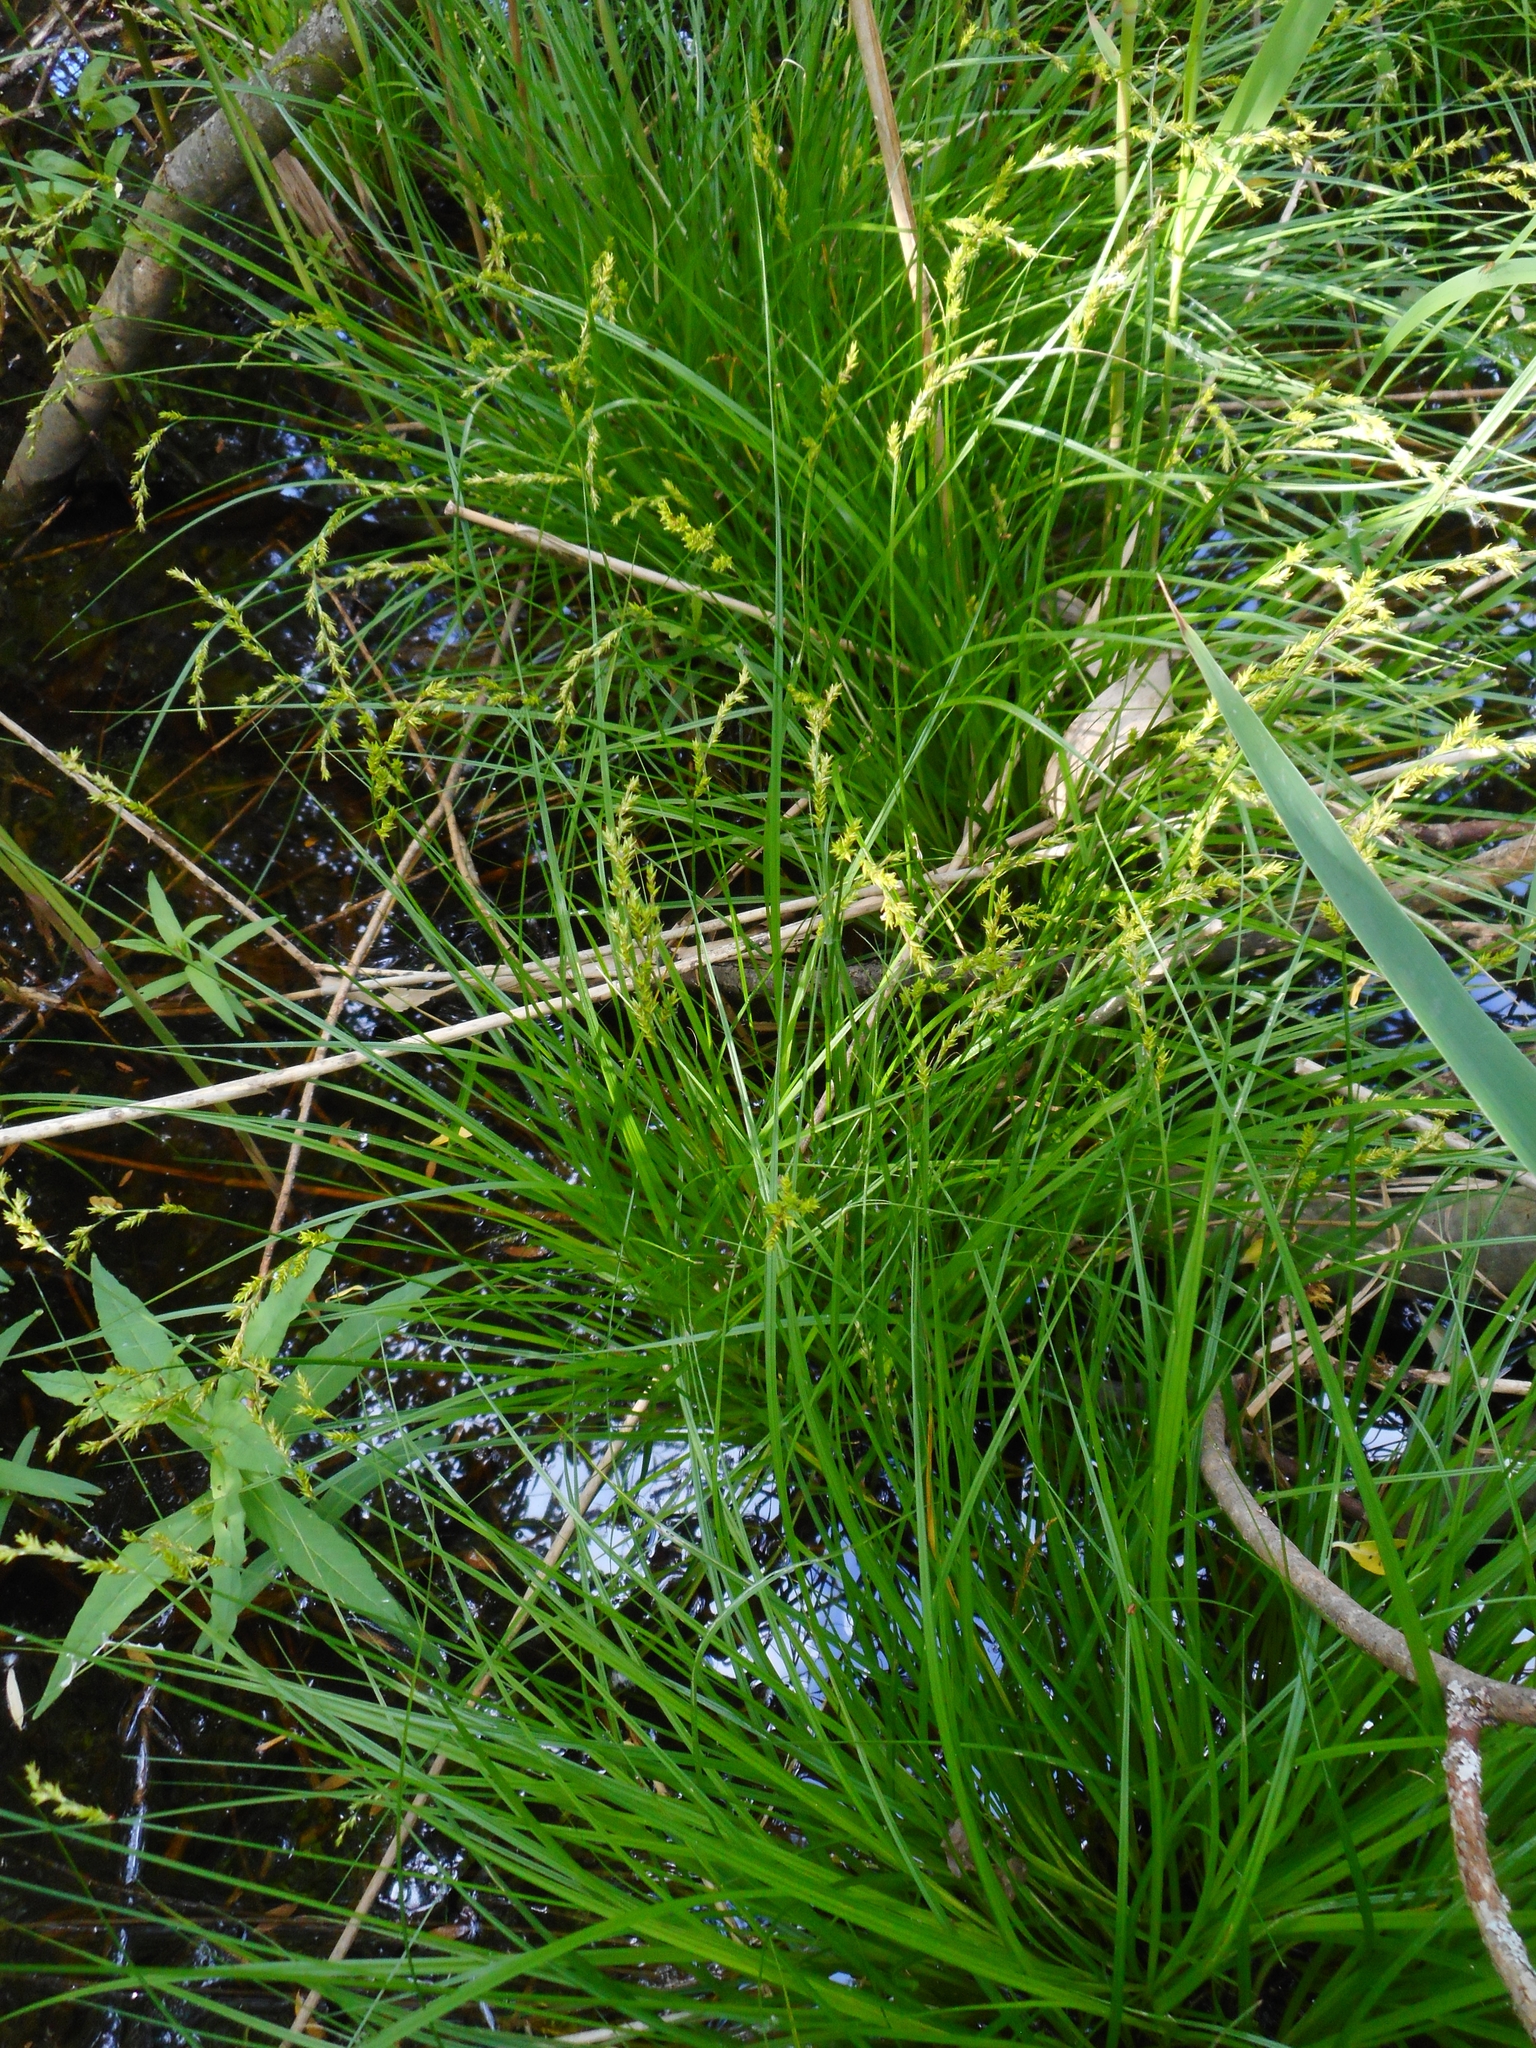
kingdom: Plantae
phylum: Tracheophyta
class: Liliopsida
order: Poales
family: Cyperaceae
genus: Carex
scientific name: Carex elongata
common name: Elongated sedge
